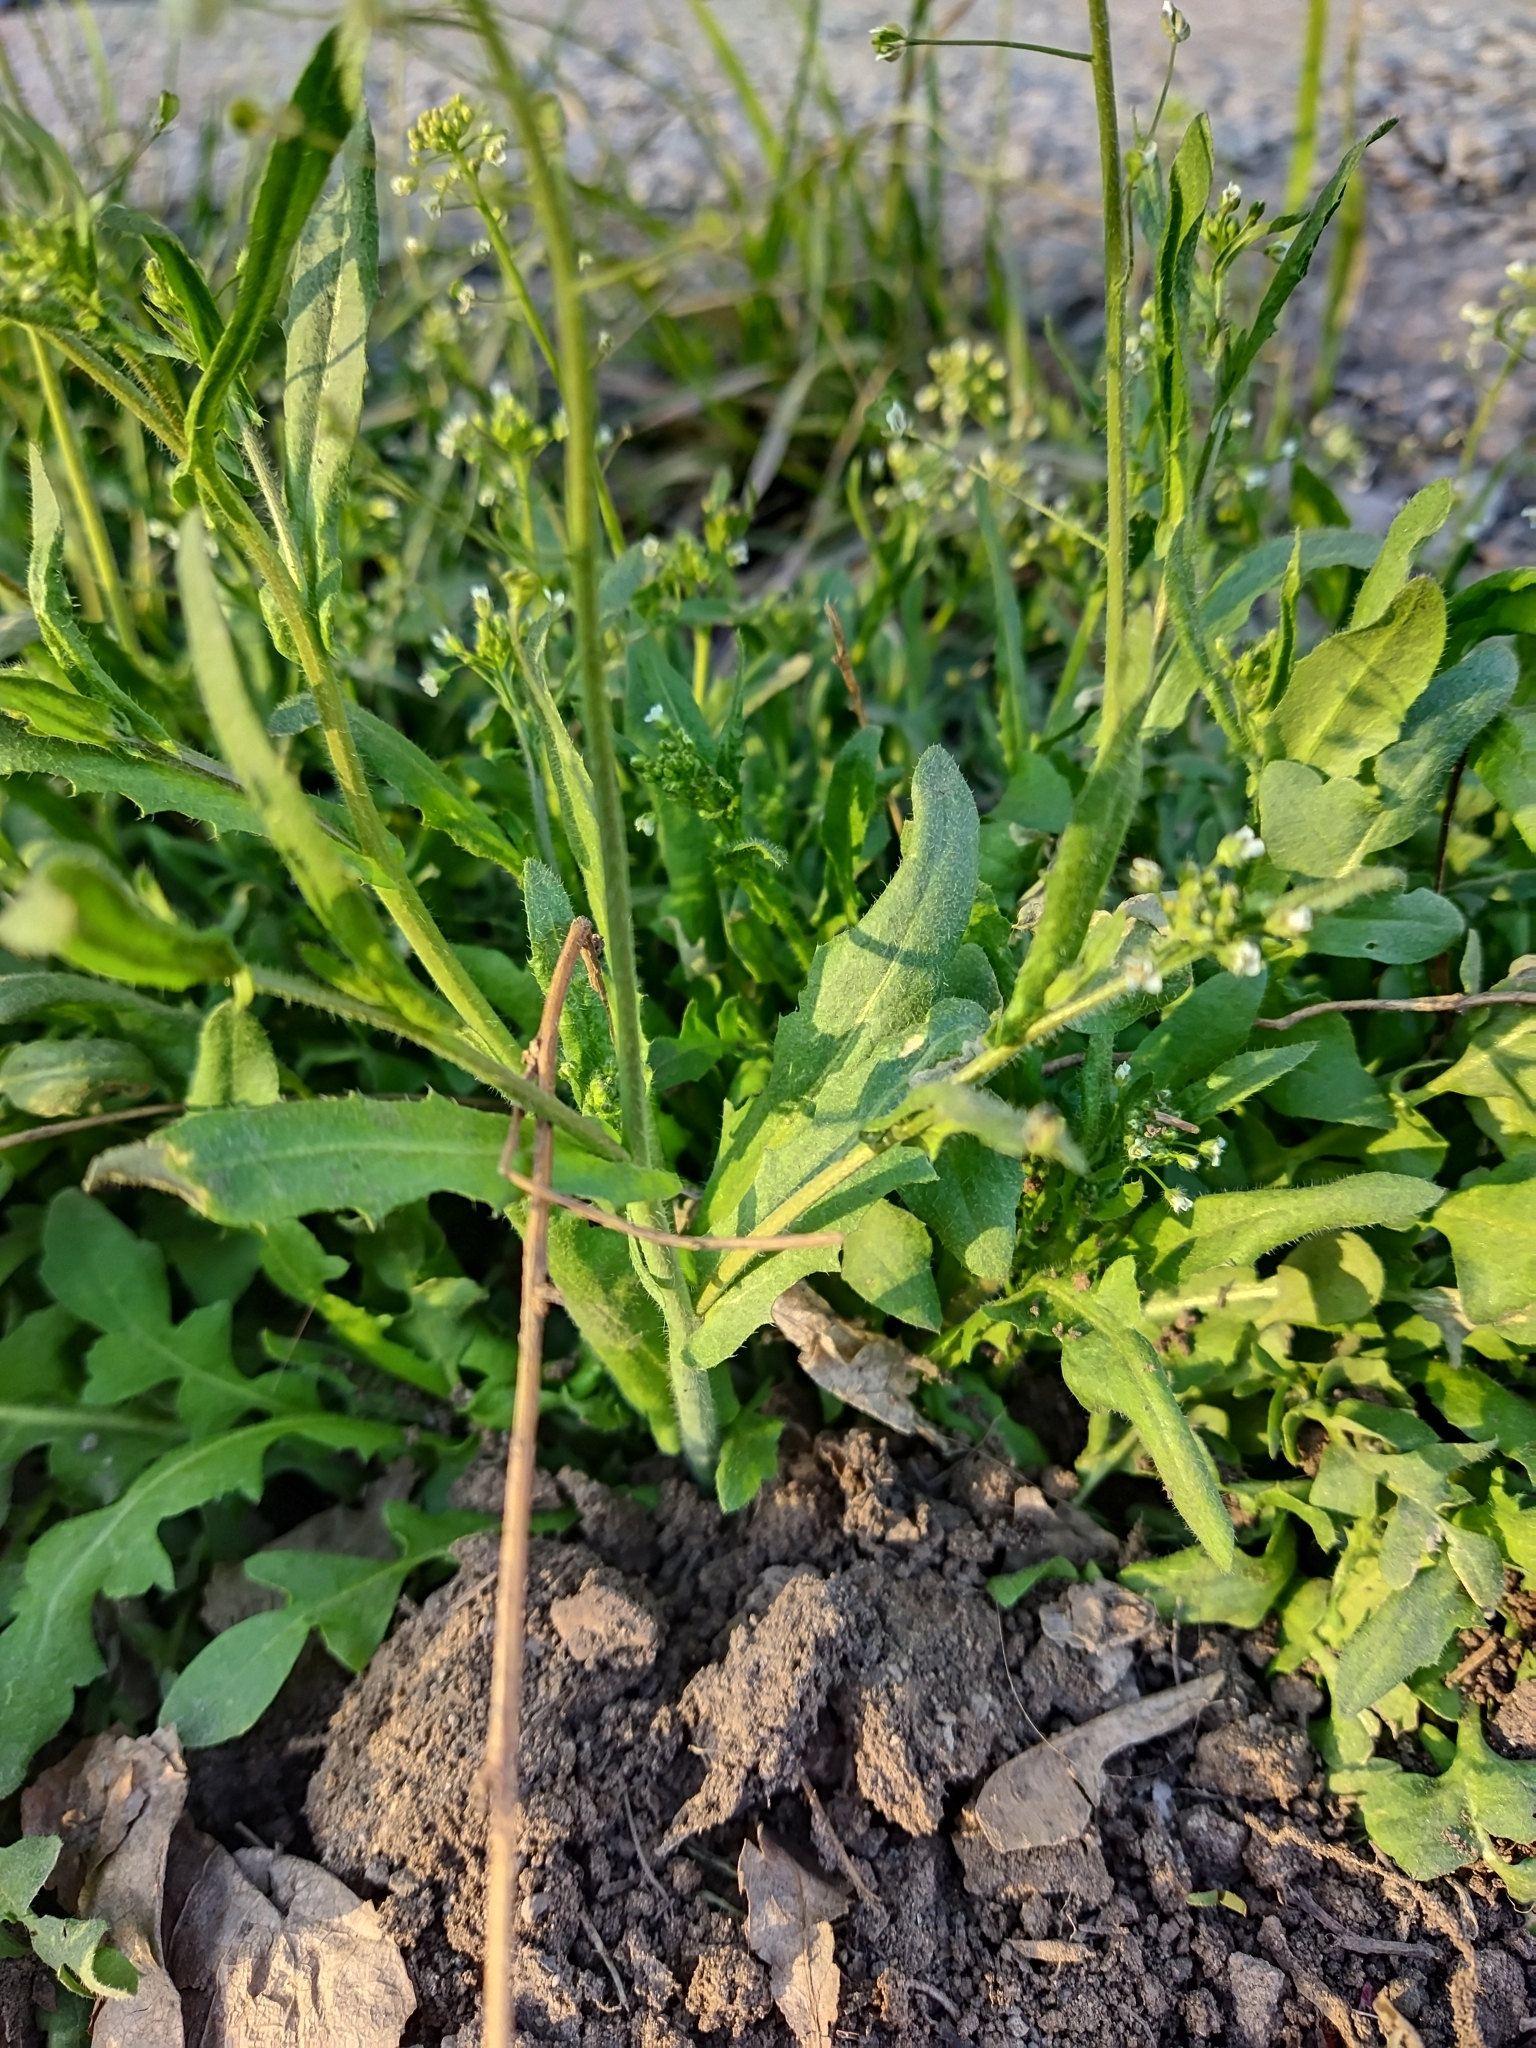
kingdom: Plantae
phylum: Tracheophyta
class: Magnoliopsida
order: Brassicales
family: Brassicaceae
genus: Capsella
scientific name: Capsella bursa-pastoris
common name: Shepherd's purse
